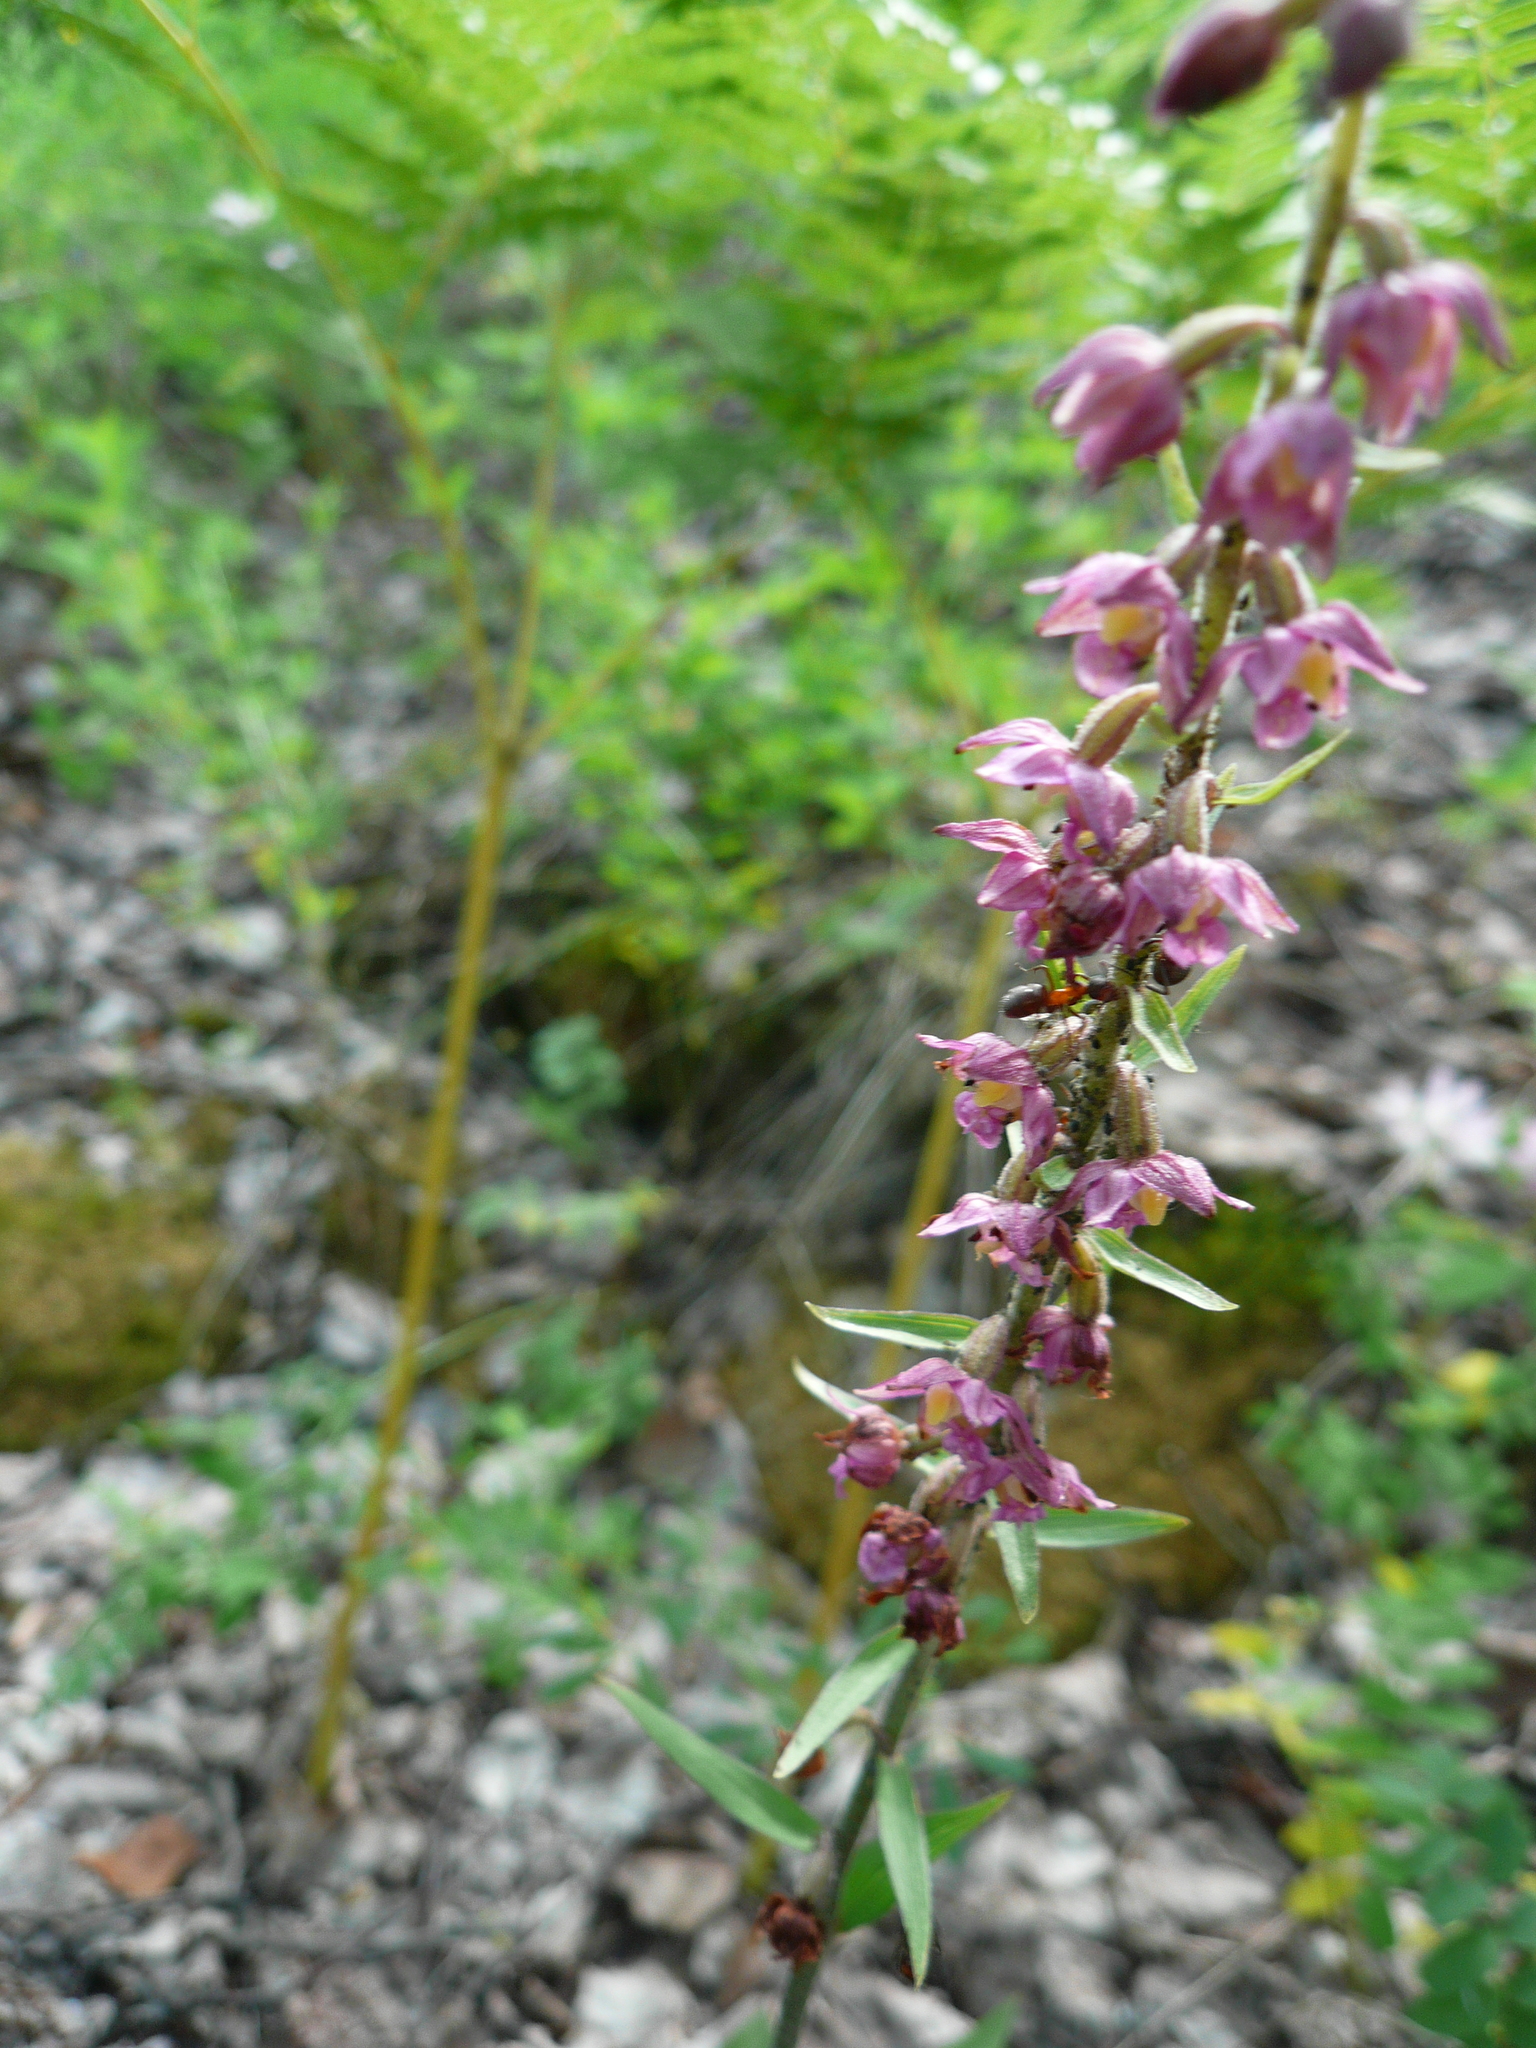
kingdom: Plantae
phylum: Tracheophyta
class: Liliopsida
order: Asparagales
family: Orchidaceae
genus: Epipactis
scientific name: Epipactis atrorubens
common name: Dark-red helleborine
